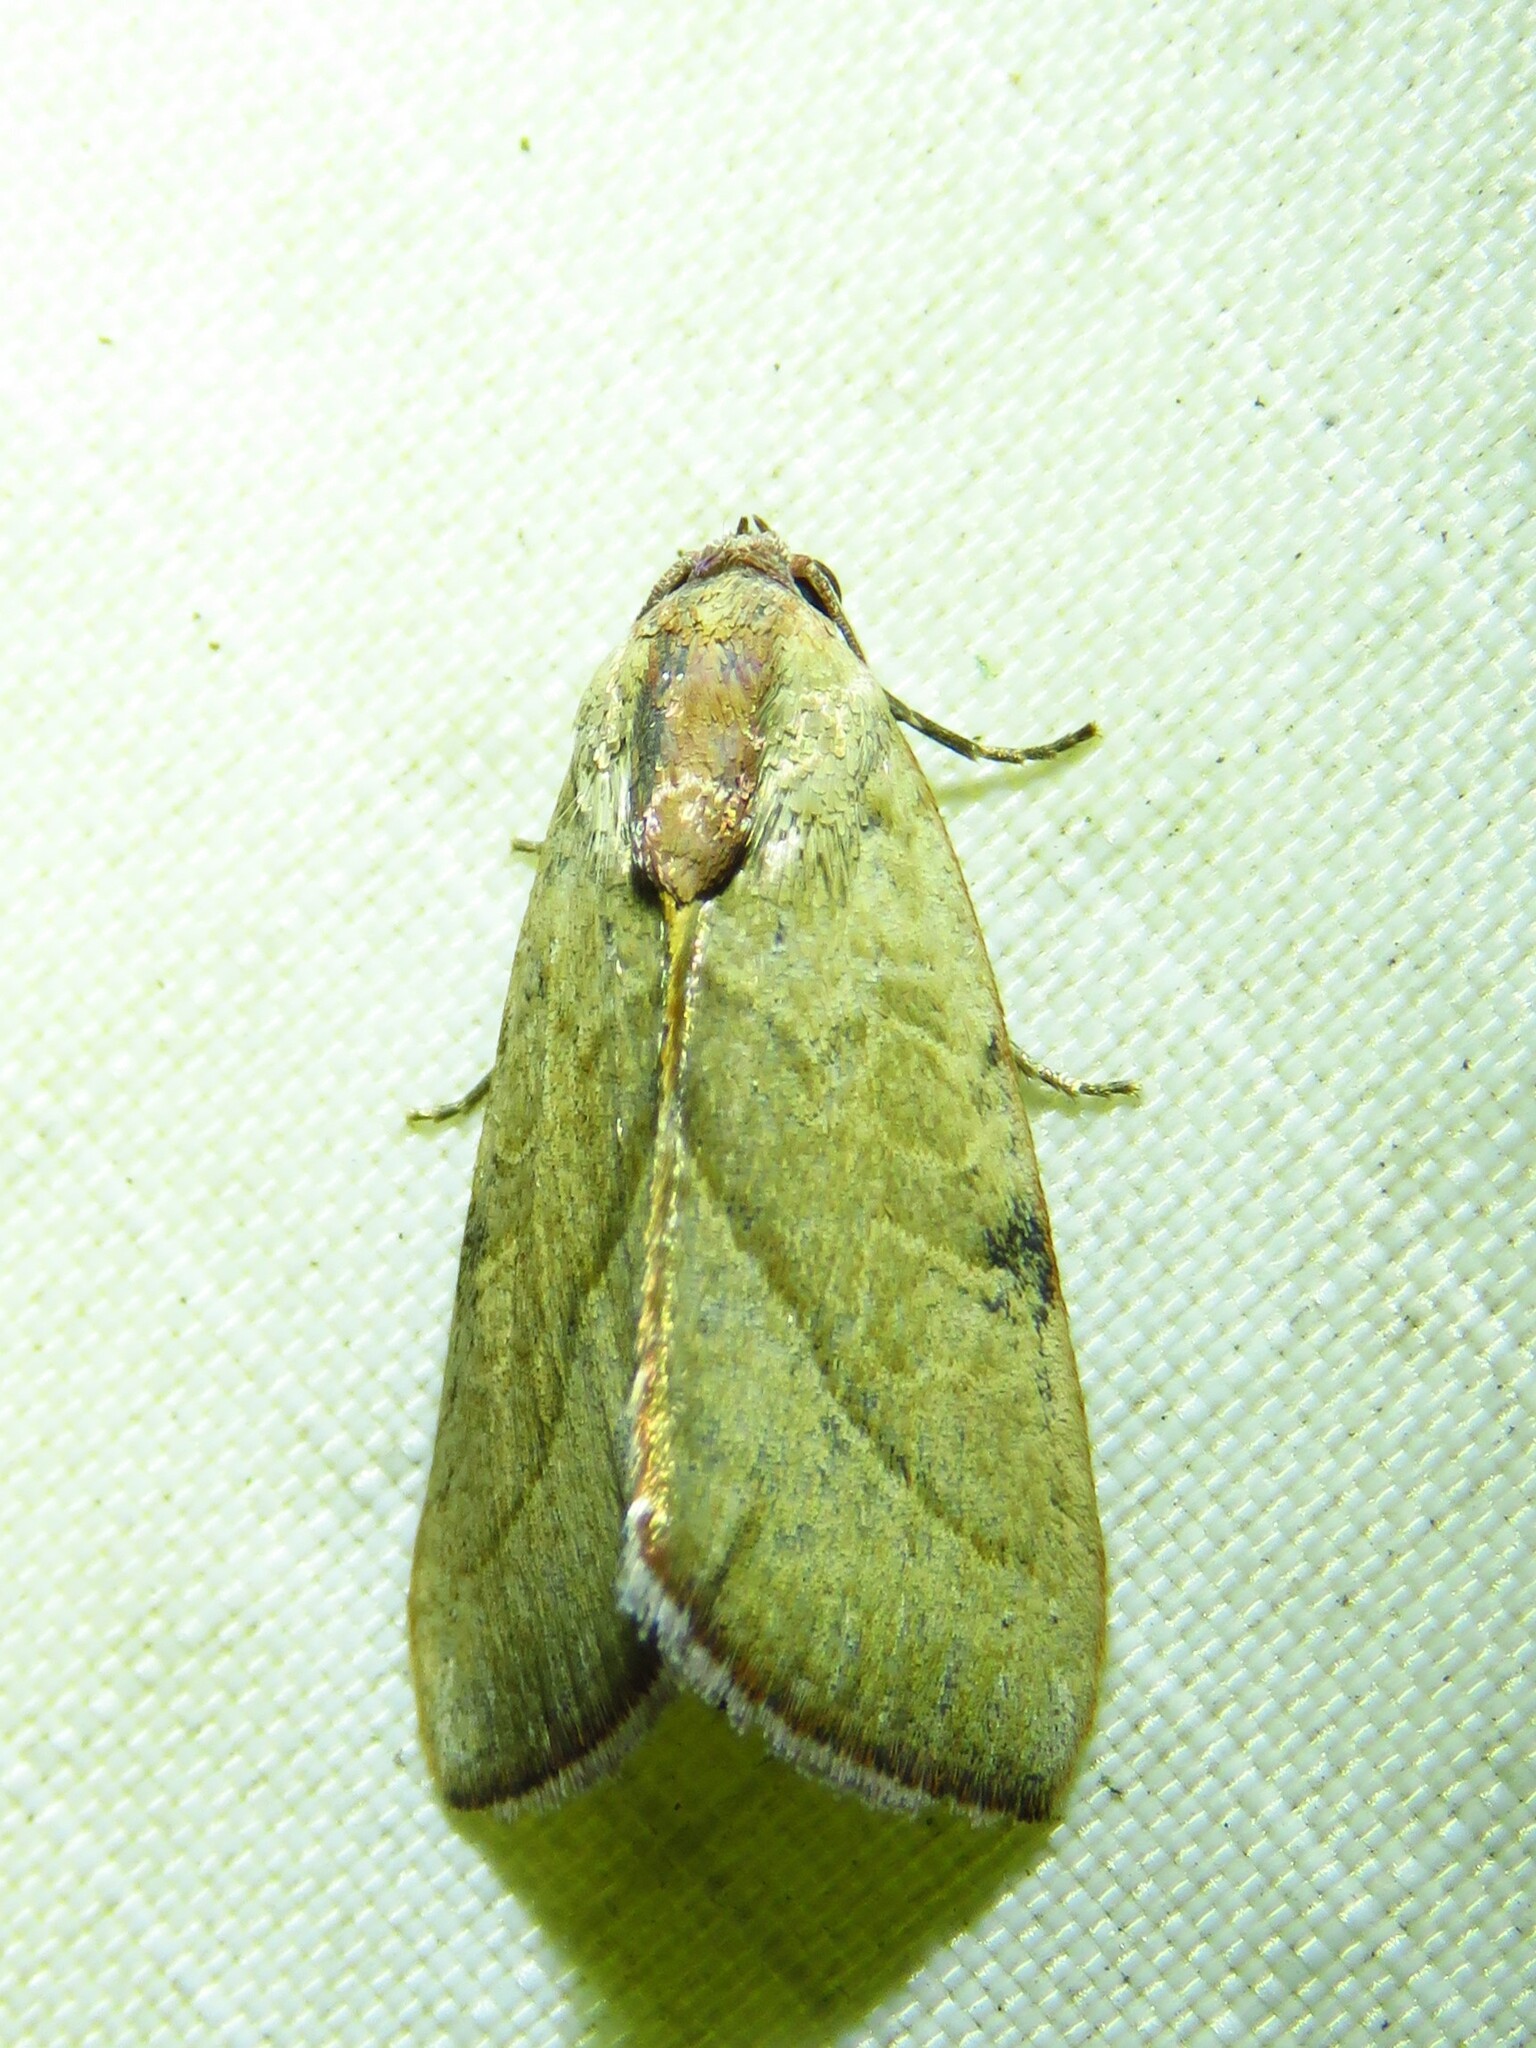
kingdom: Animalia
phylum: Arthropoda
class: Insecta
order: Lepidoptera
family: Noctuidae
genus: Galgula
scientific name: Galgula partita
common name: Wedgeling
